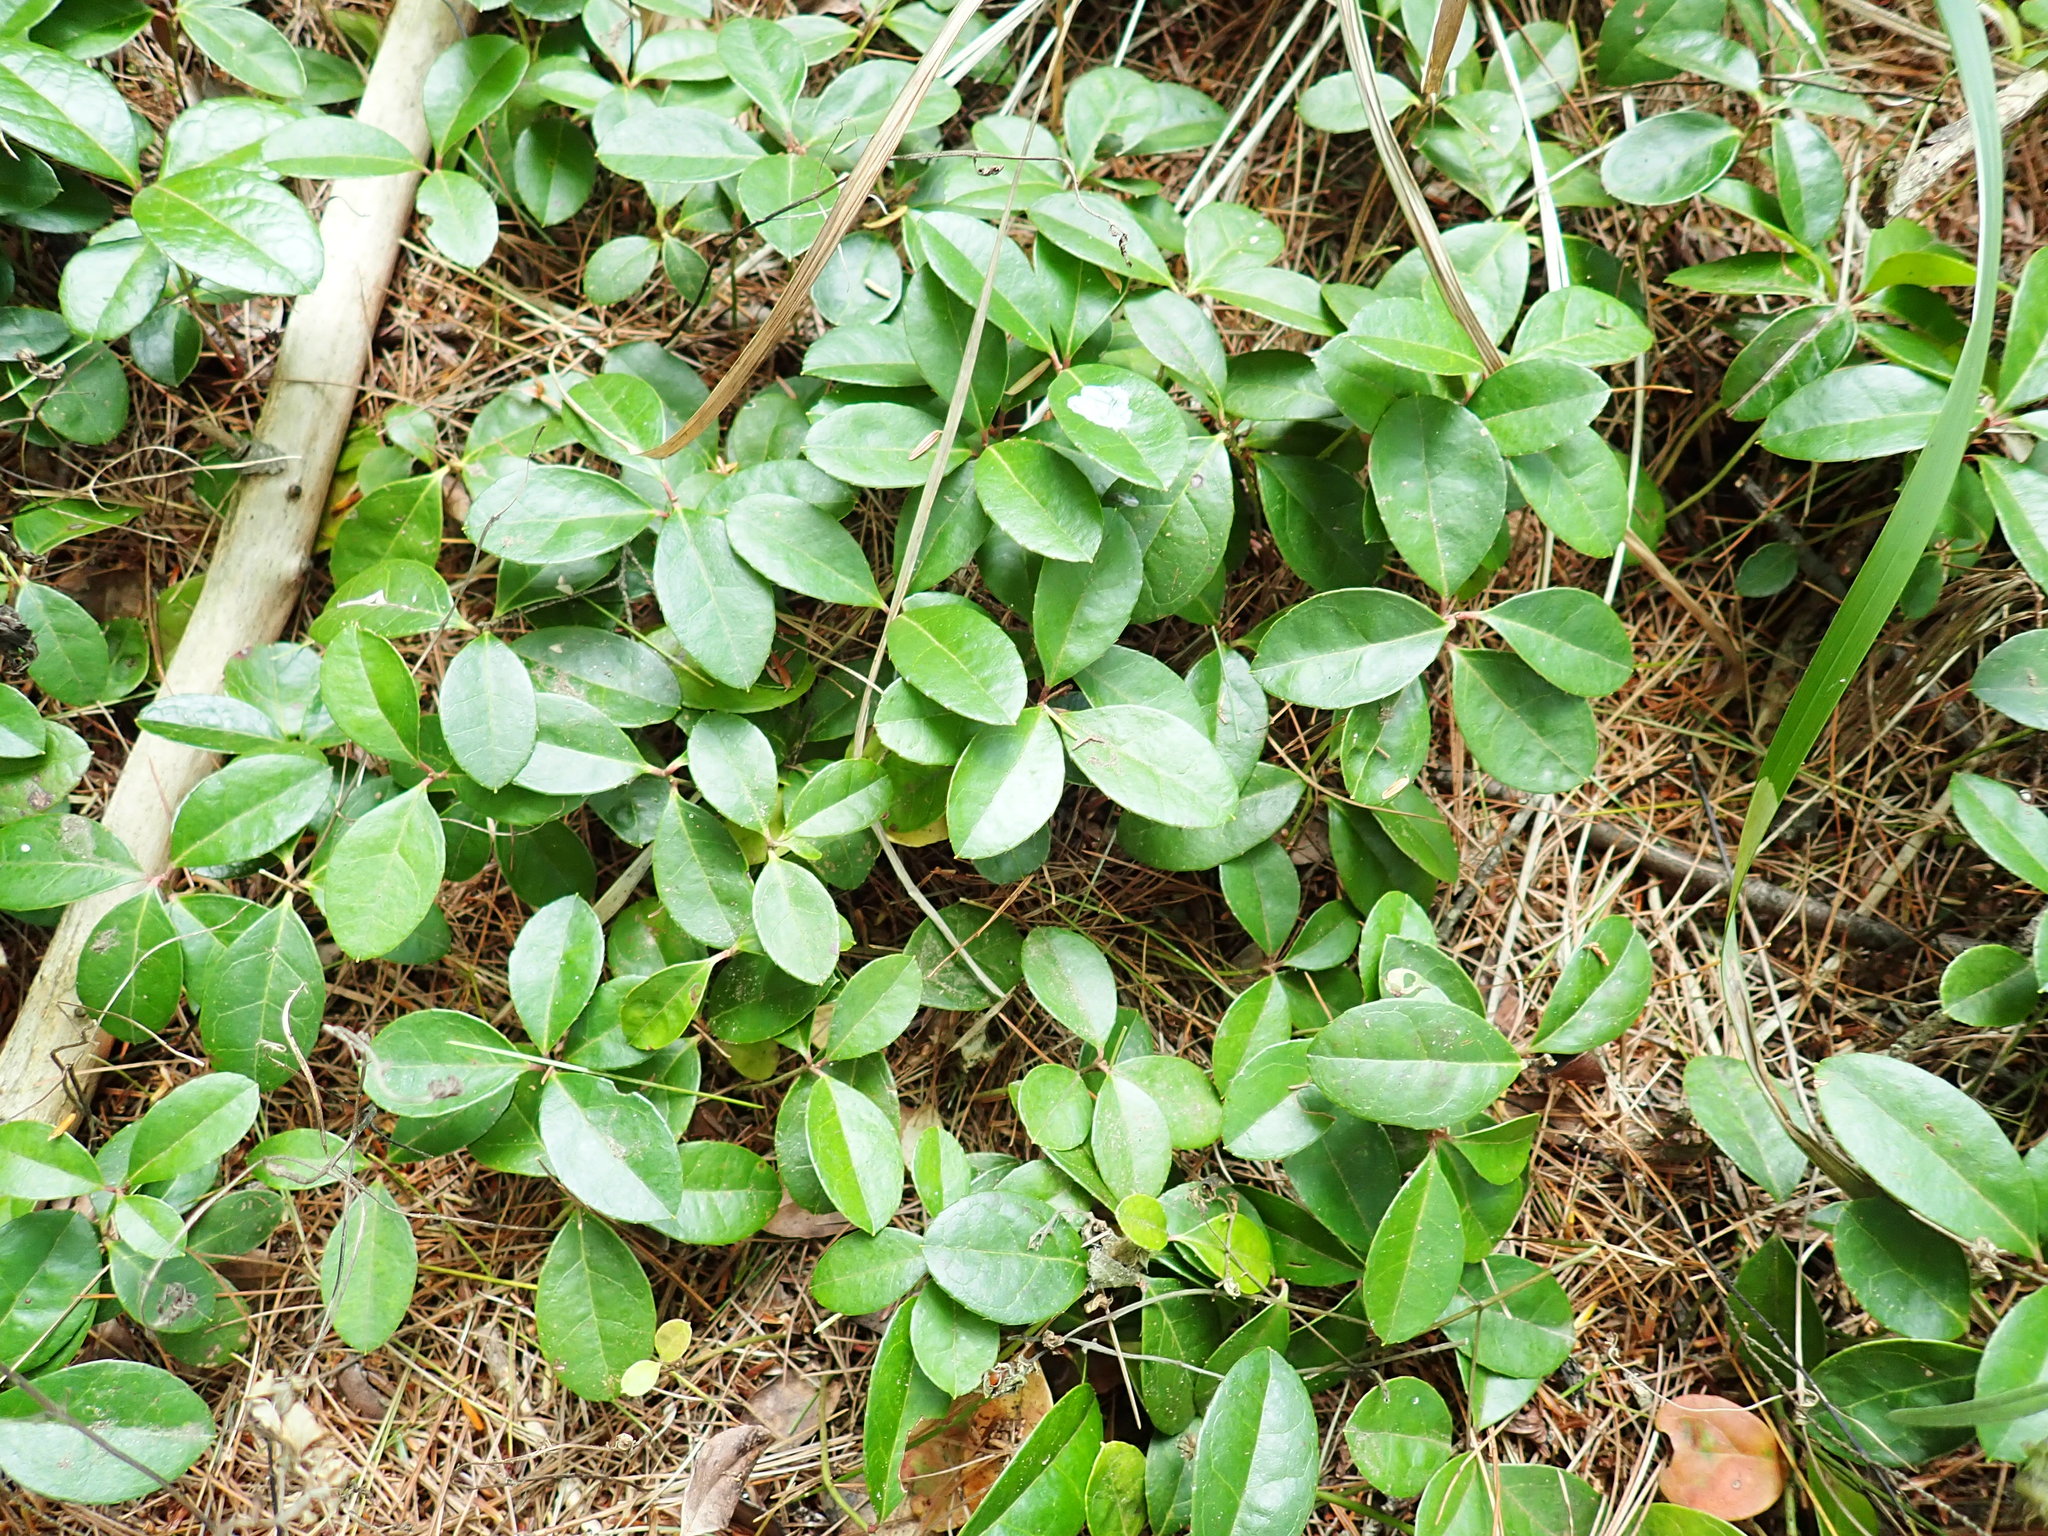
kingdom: Plantae
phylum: Tracheophyta
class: Magnoliopsida
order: Ericales
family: Ericaceae
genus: Gaultheria
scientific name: Gaultheria procumbens
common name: Checkerberry
